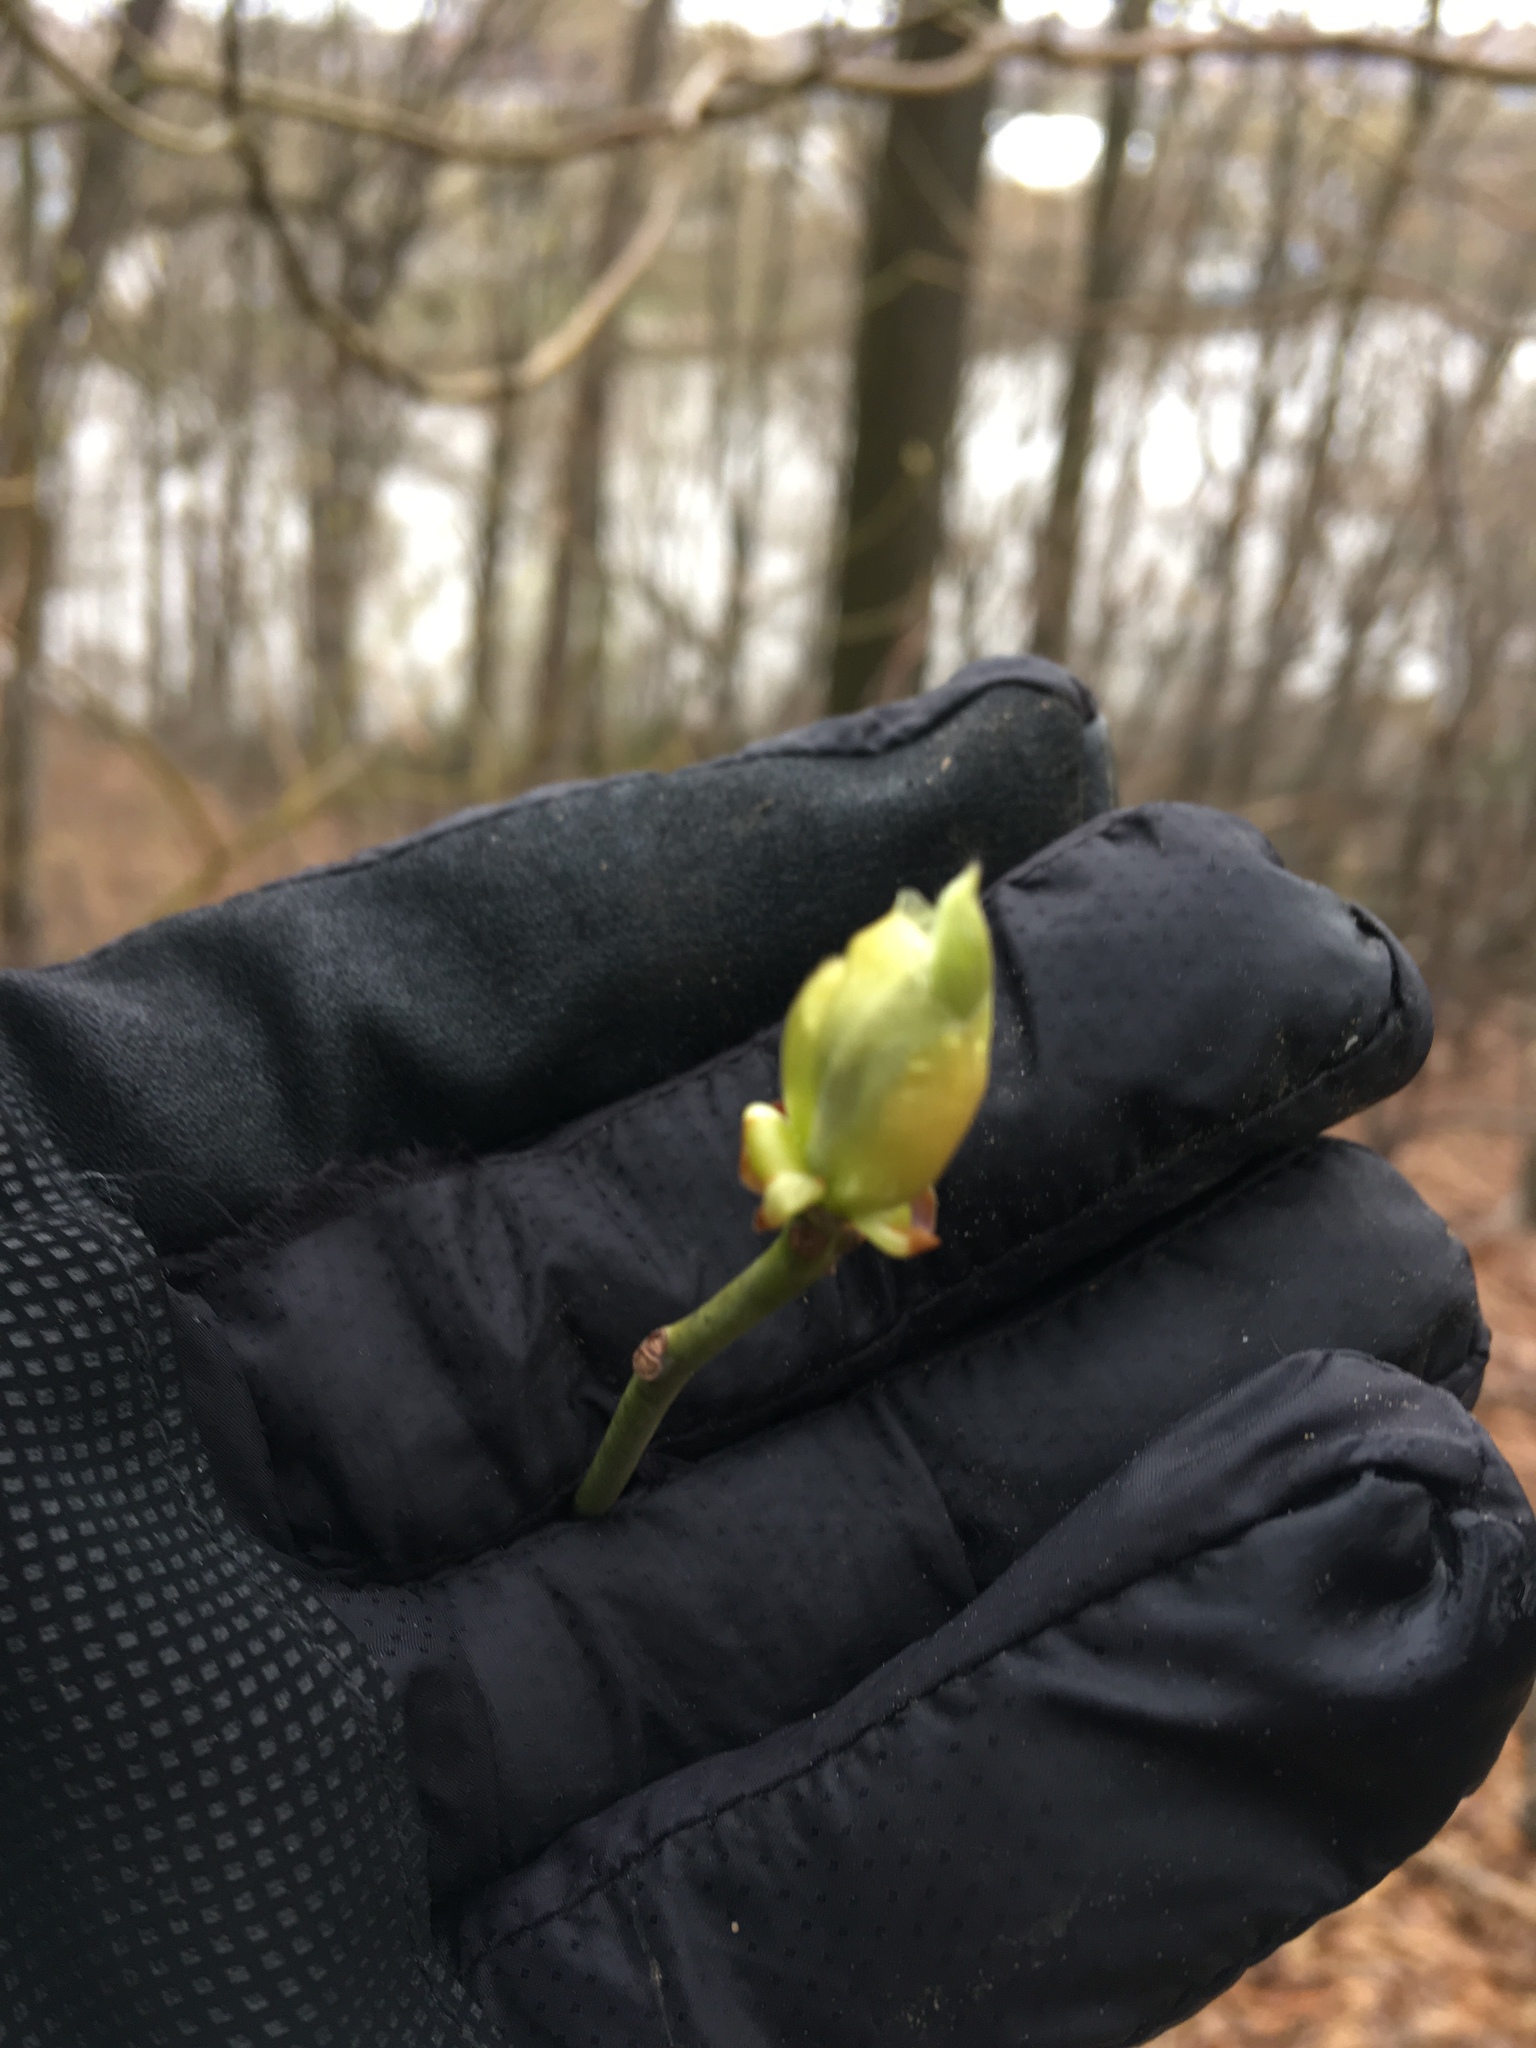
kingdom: Plantae
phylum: Tracheophyta
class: Magnoliopsida
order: Laurales
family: Lauraceae
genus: Sassafras
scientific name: Sassafras albidum
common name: Sassafras
